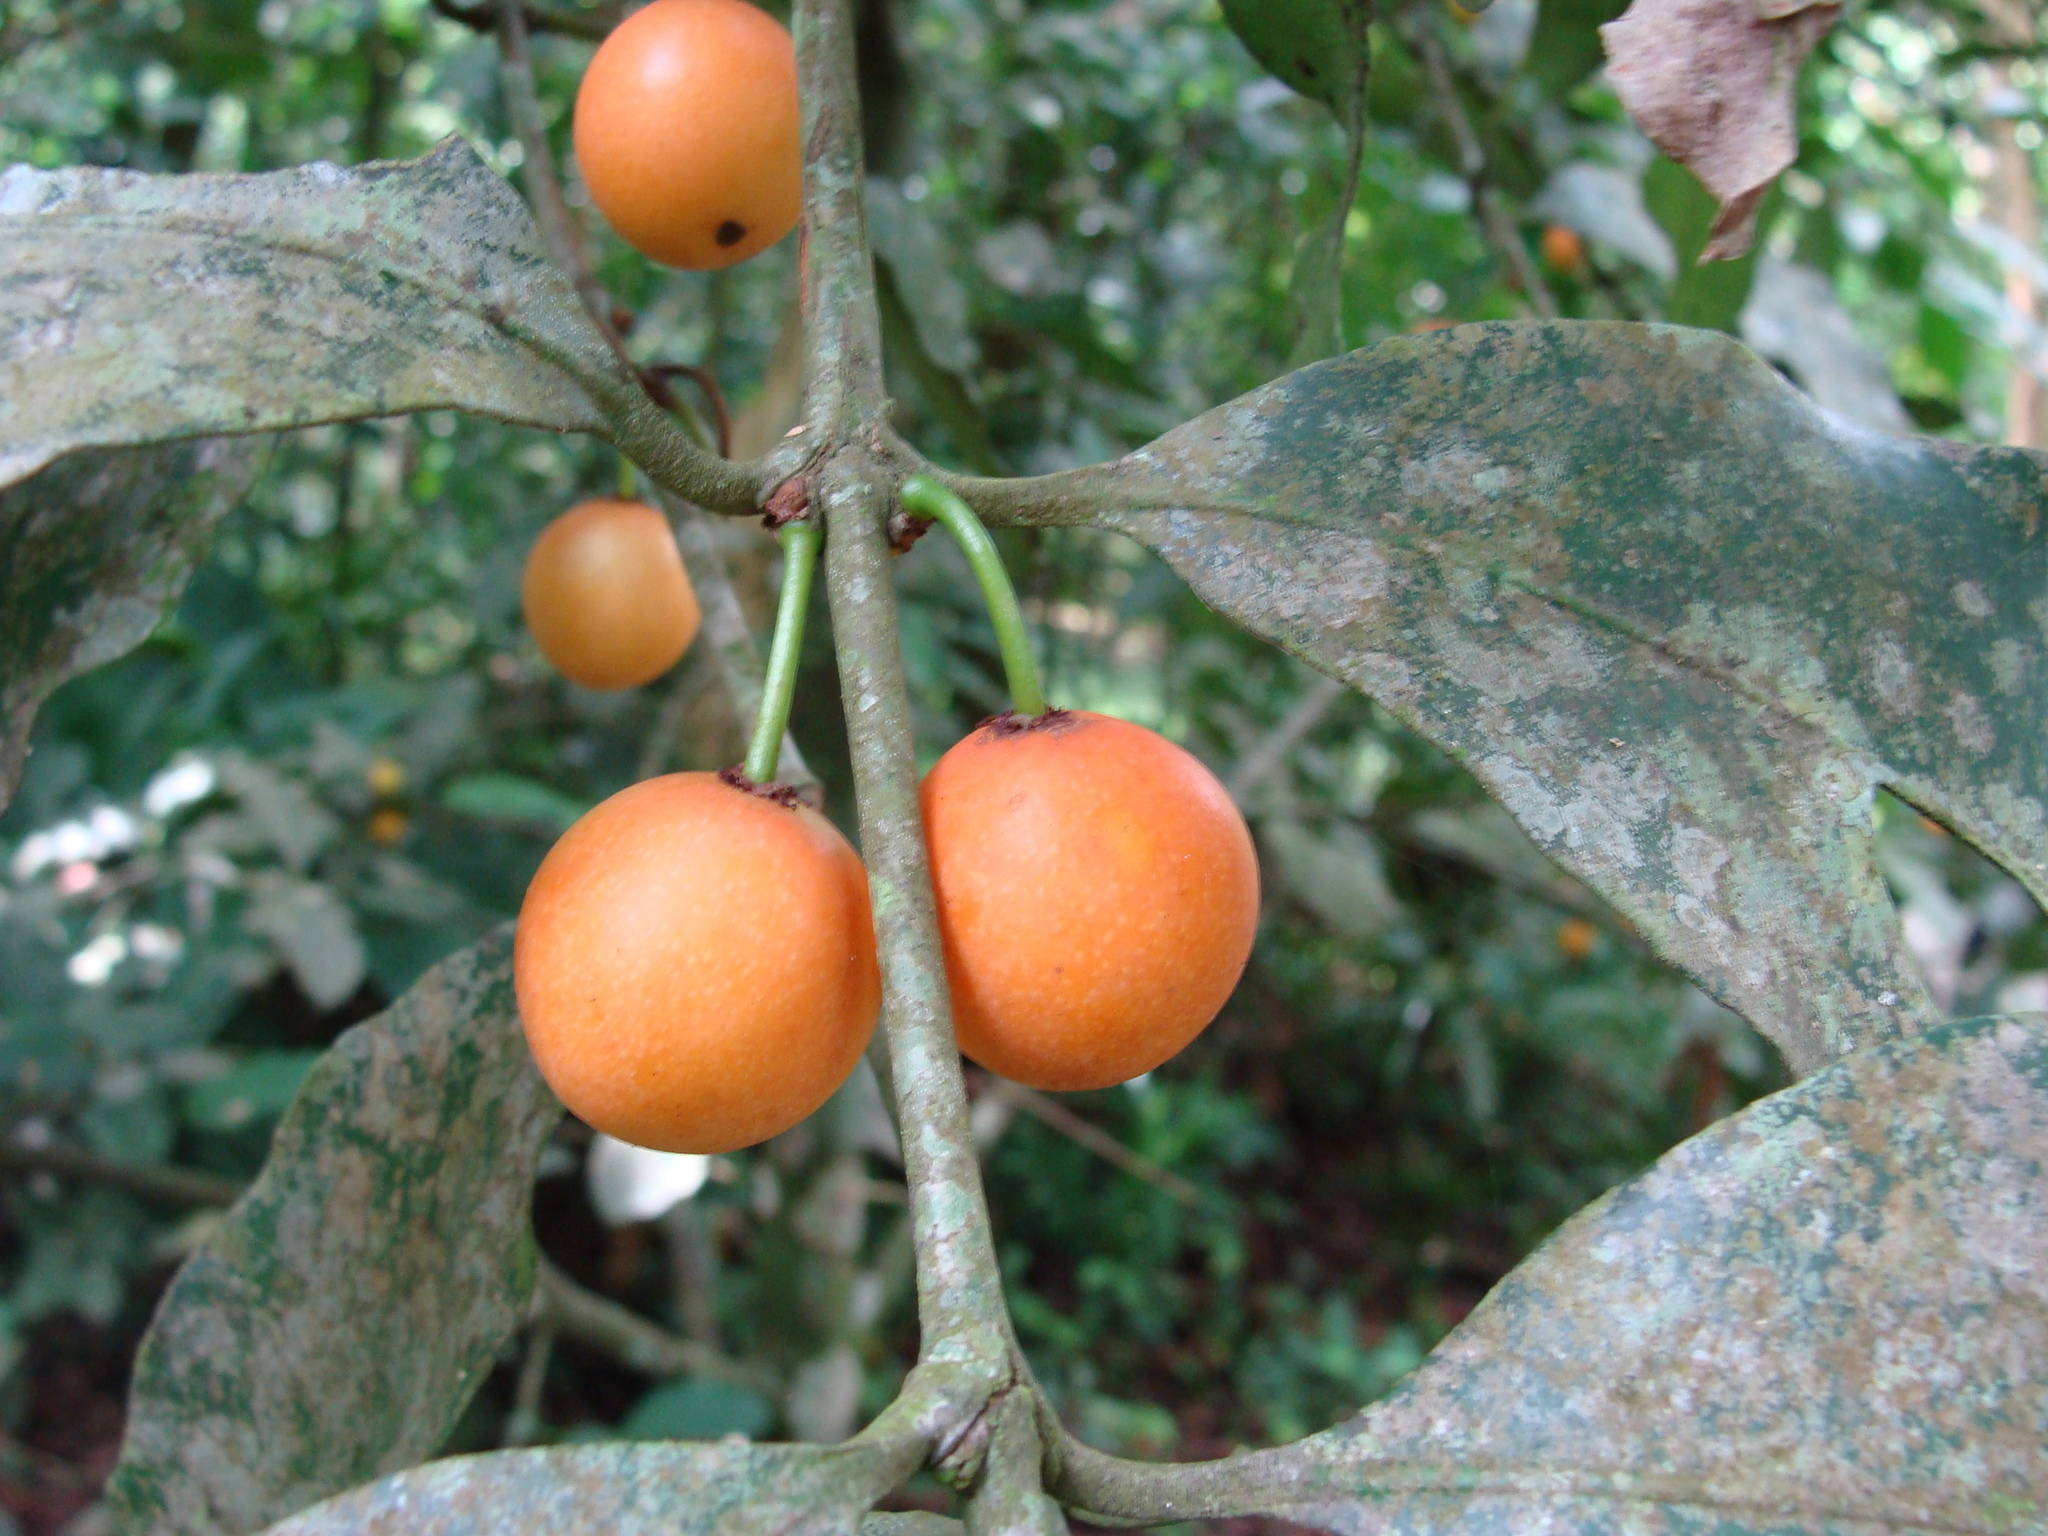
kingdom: Plantae
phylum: Tracheophyta
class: Magnoliopsida
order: Malpighiales
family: Clusiaceae
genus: Garcinia
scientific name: Garcinia intermedia
